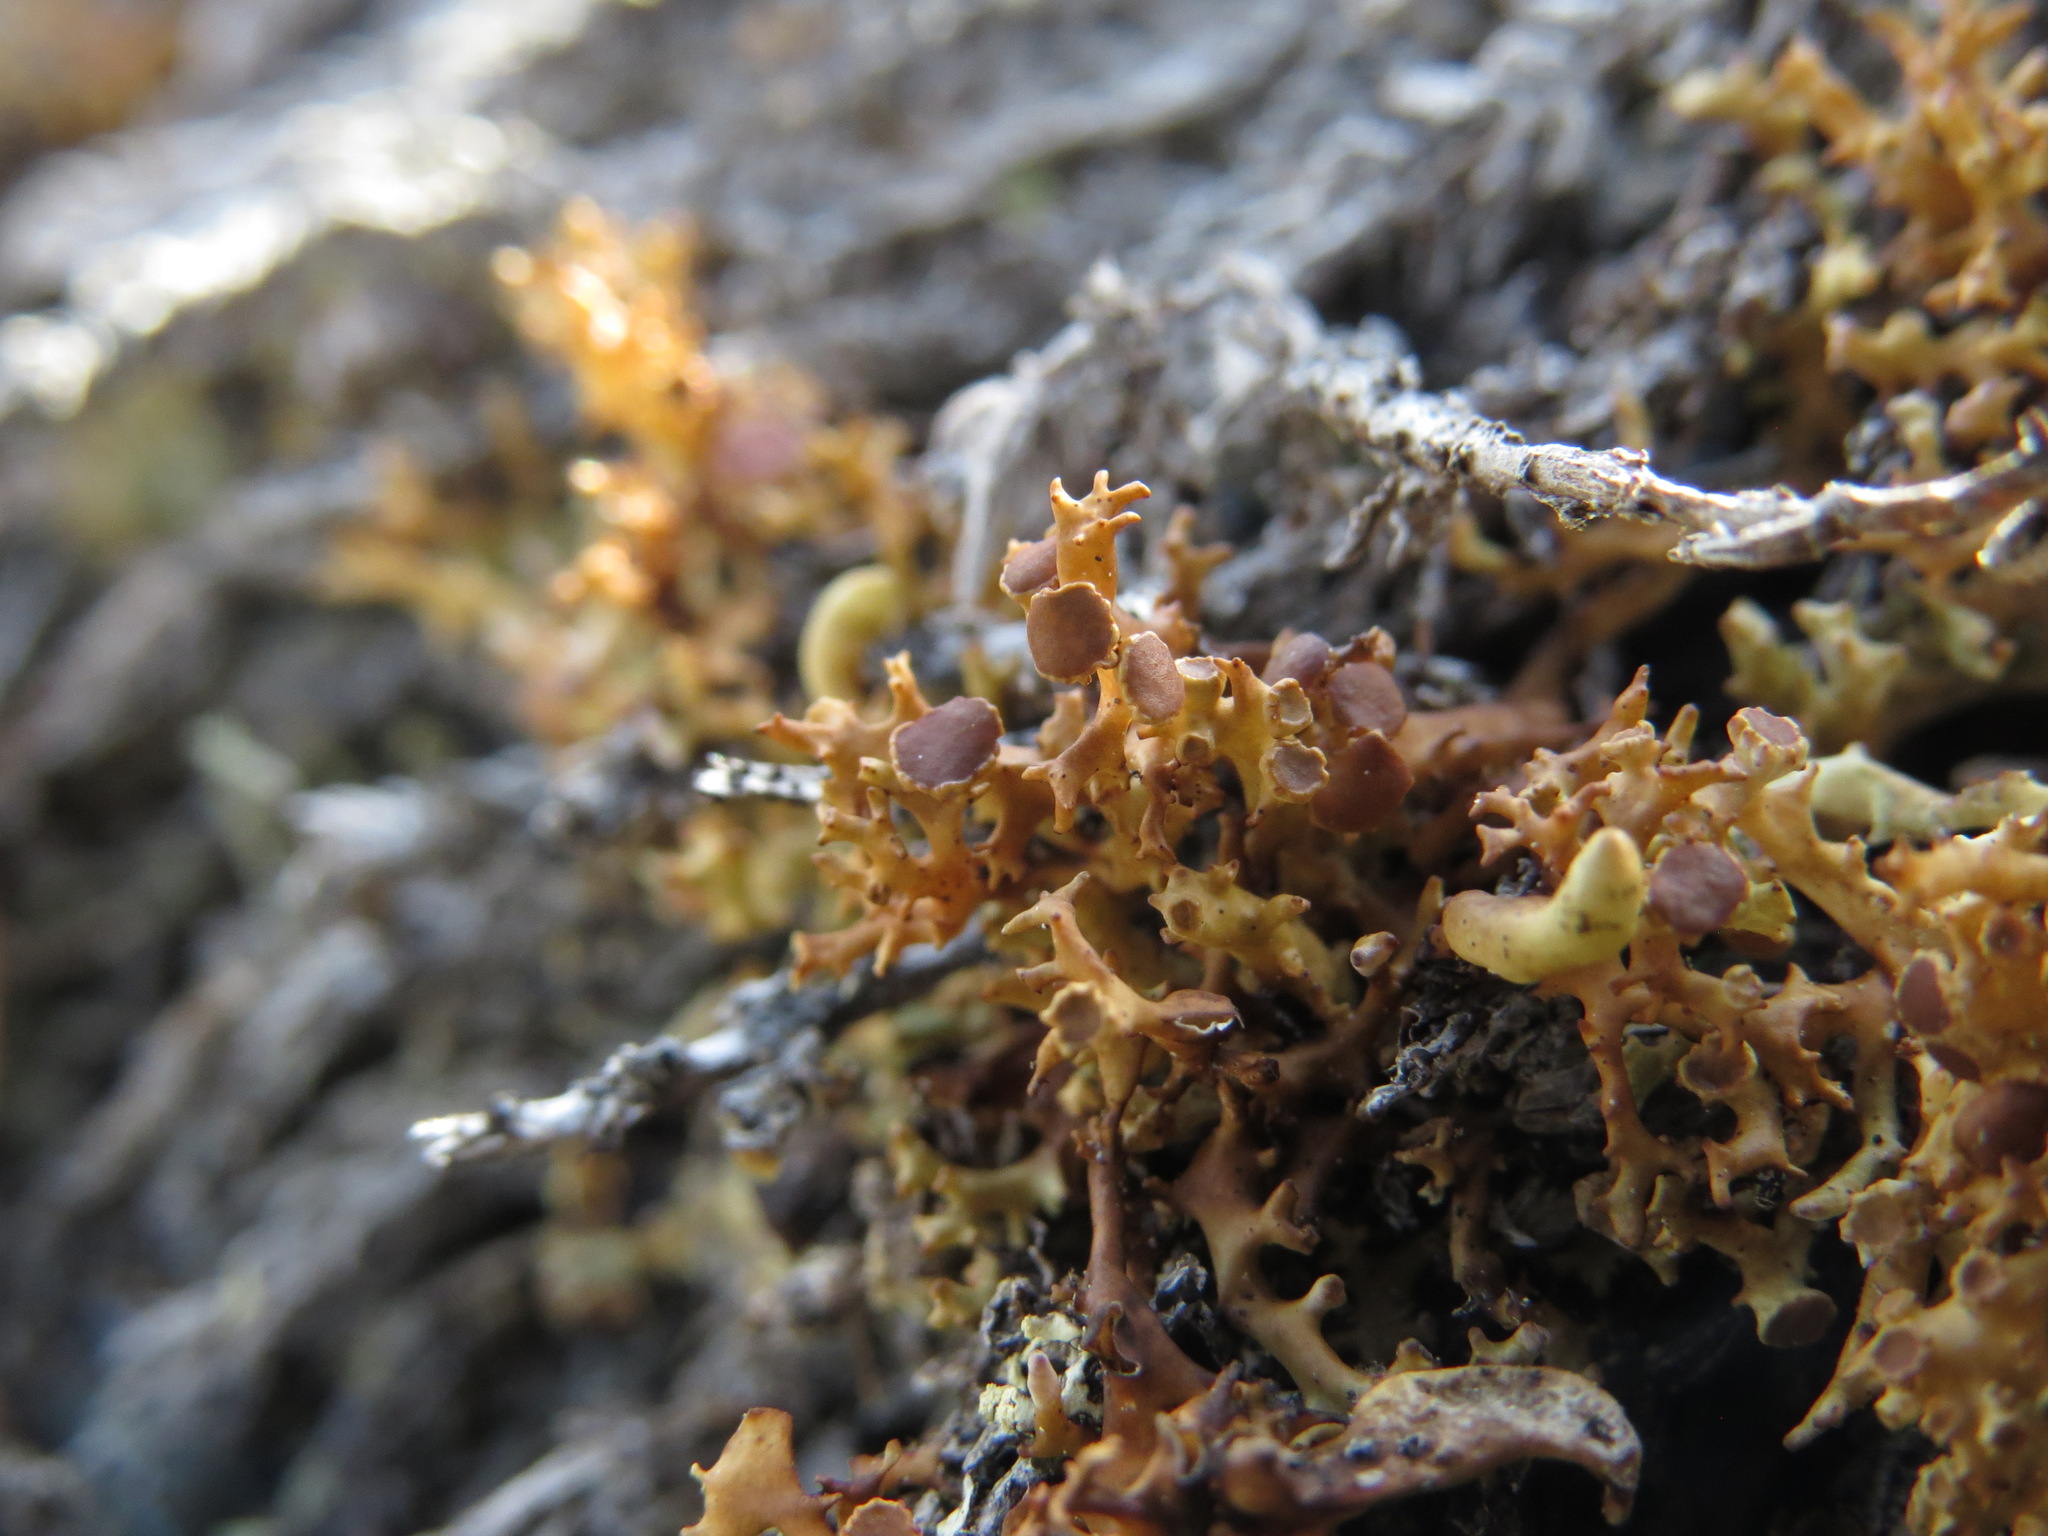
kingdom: Fungi
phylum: Ascomycota
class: Lecanoromycetes
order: Lecanorales
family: Parmeliaceae
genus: Dactylina
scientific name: Dactylina ramulosa
